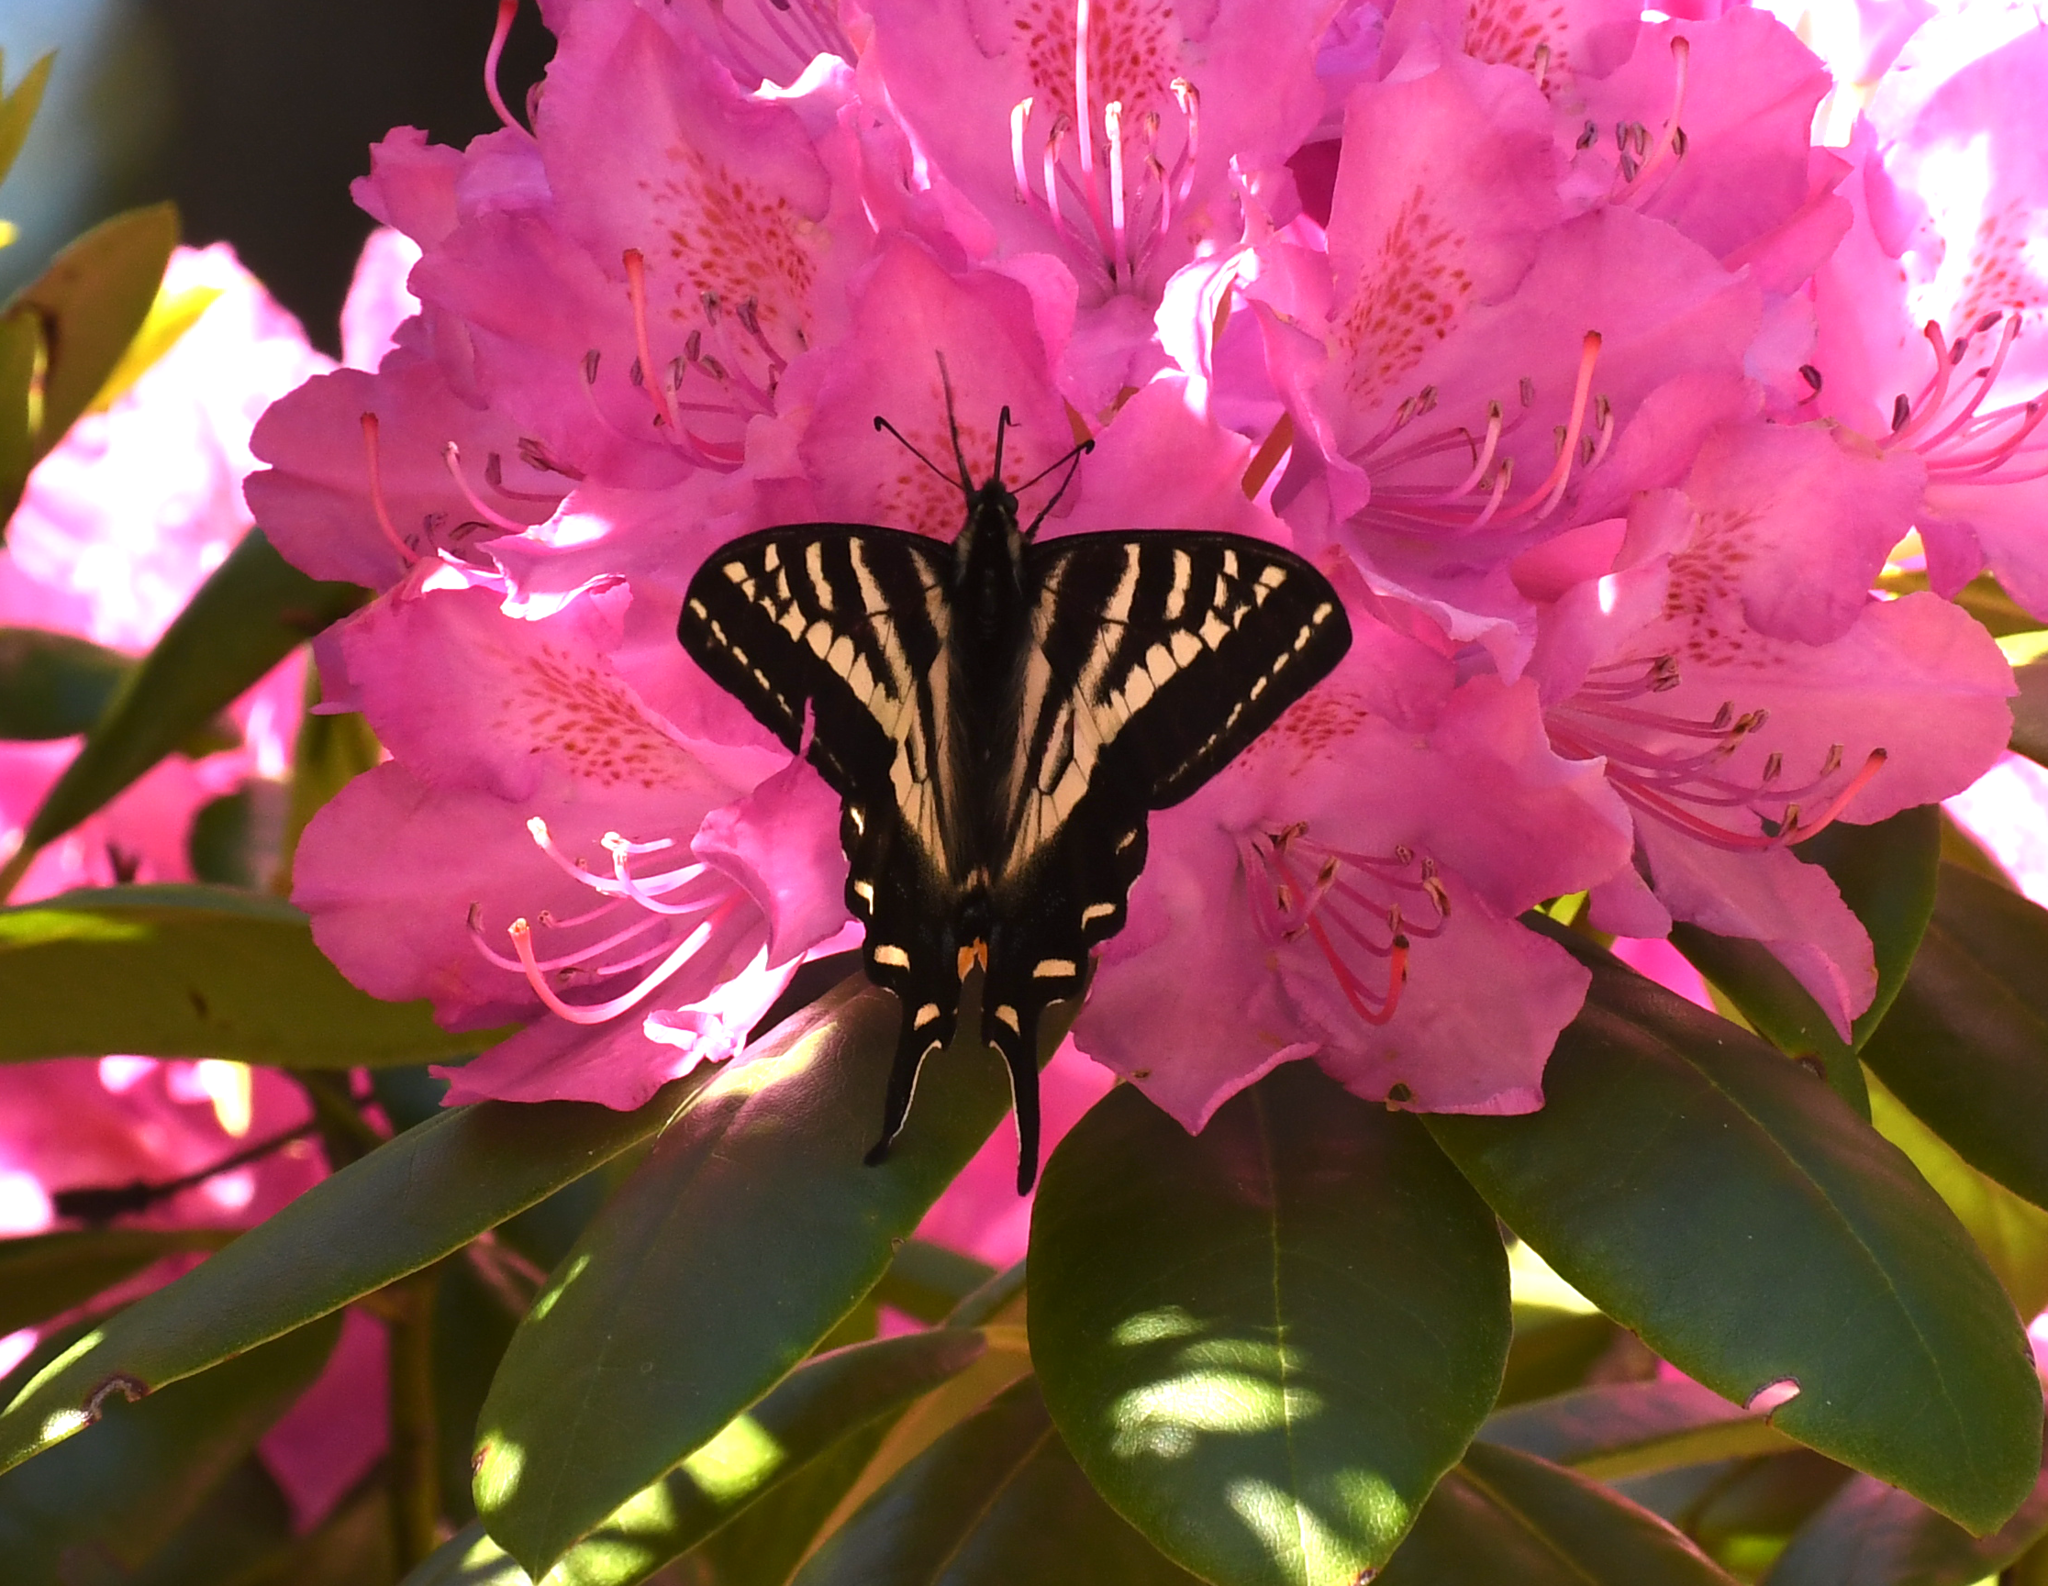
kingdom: Animalia
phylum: Arthropoda
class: Insecta
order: Lepidoptera
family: Papilionidae
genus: Papilio
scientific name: Papilio eurymedon
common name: Pale tiger swallowtail
